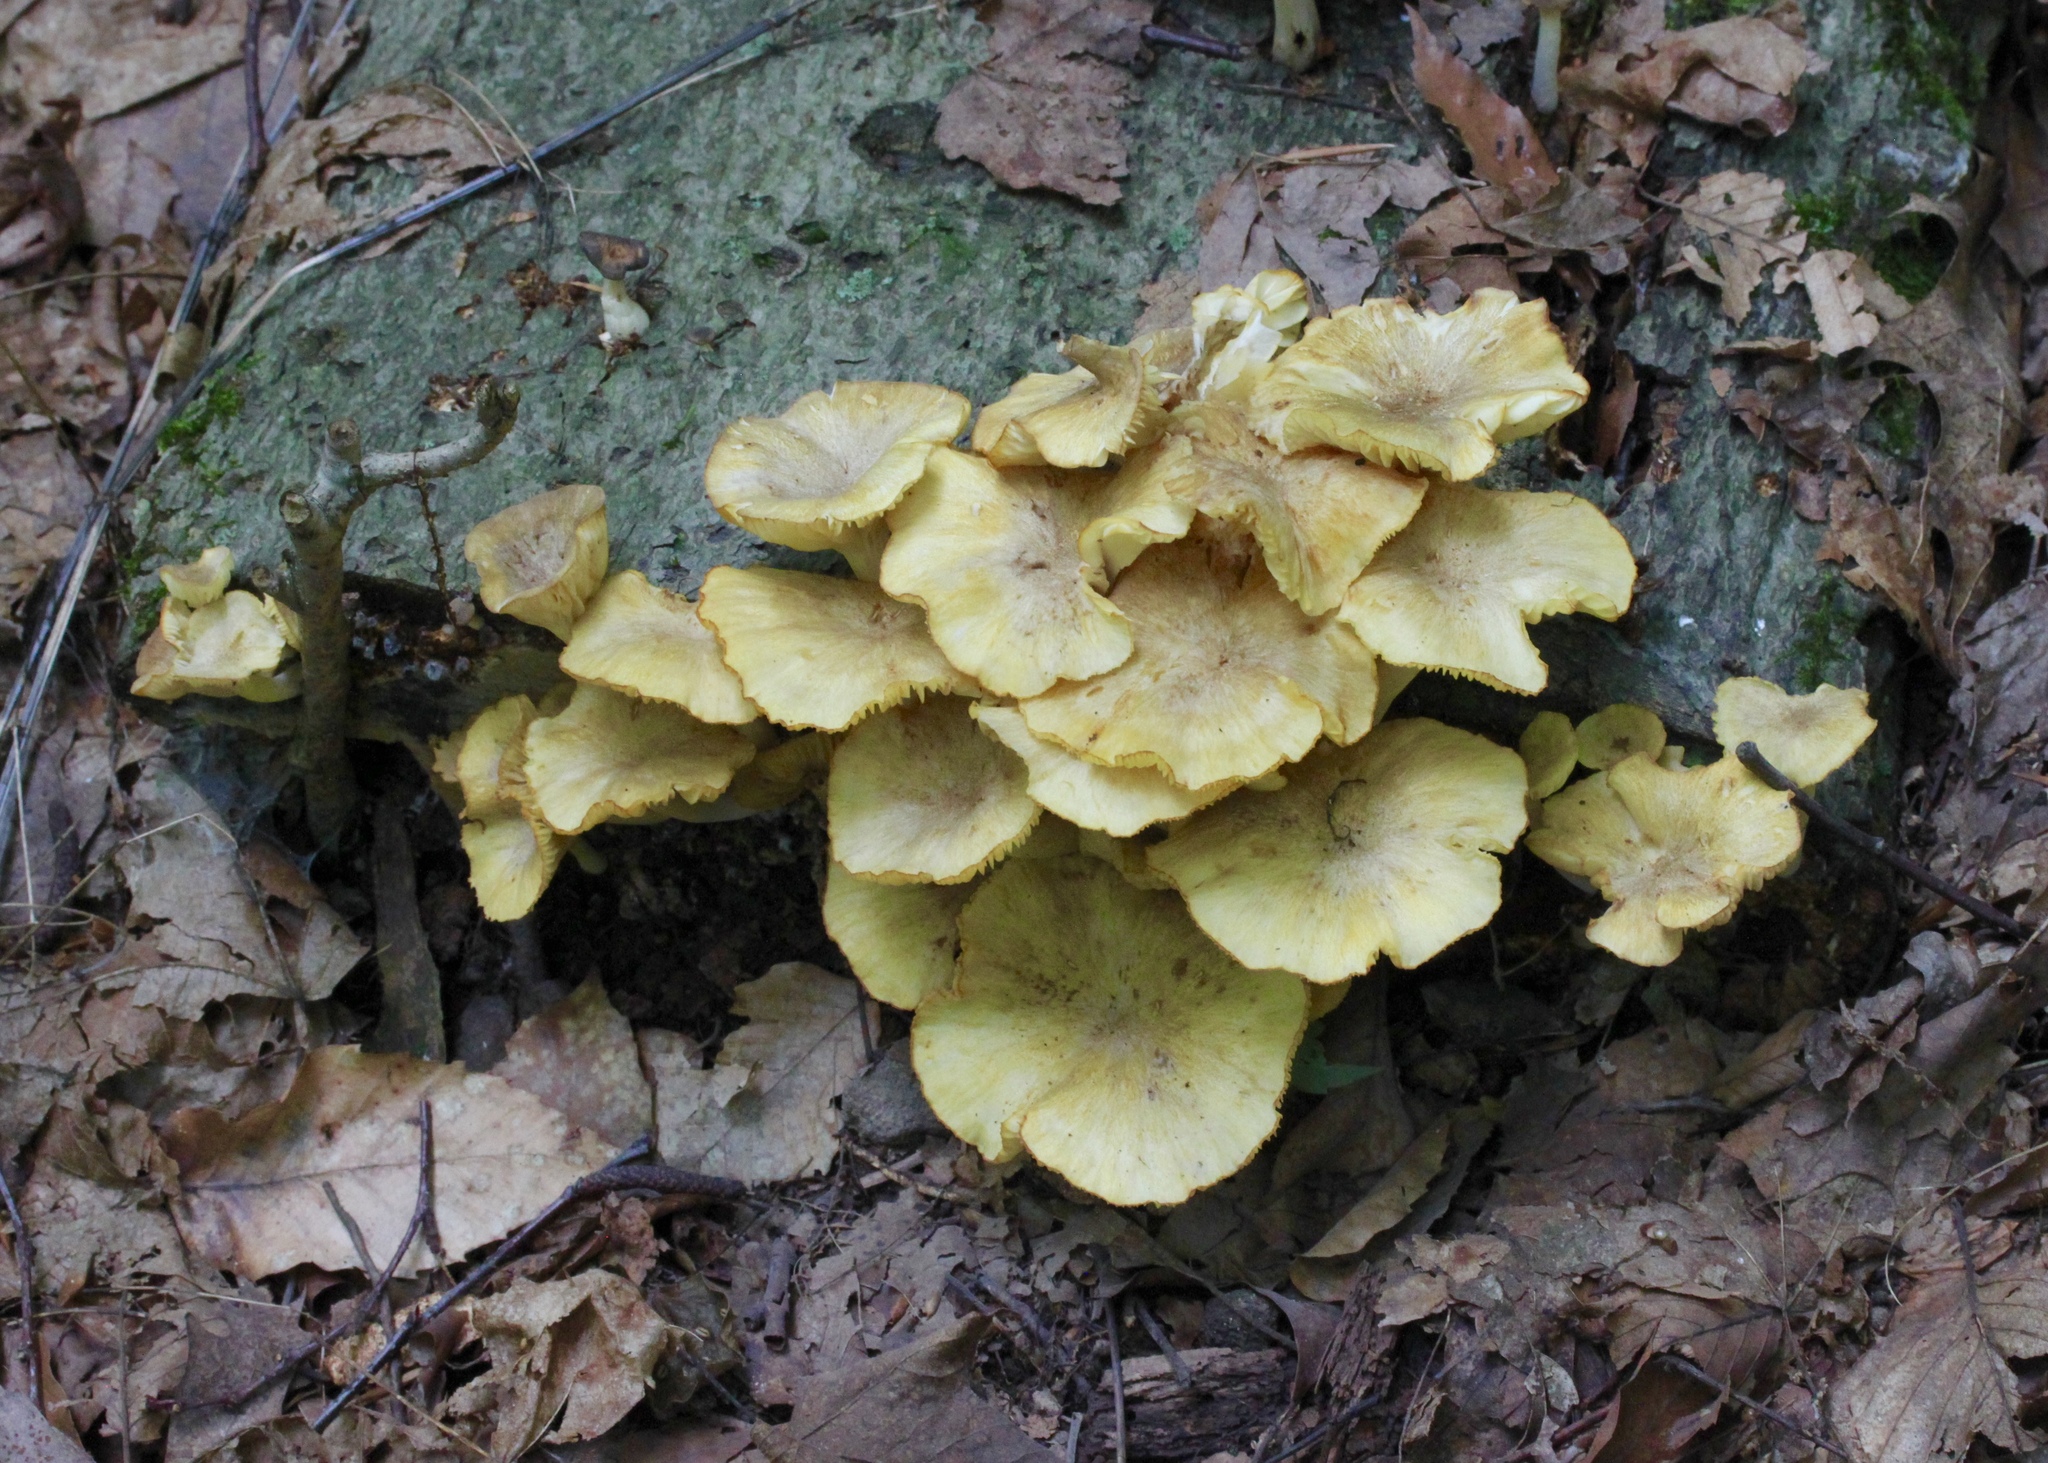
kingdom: Fungi
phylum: Basidiomycota
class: Agaricomycetes
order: Agaricales
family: Marasmiaceae
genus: Gerronema
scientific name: Gerronema strombodes
